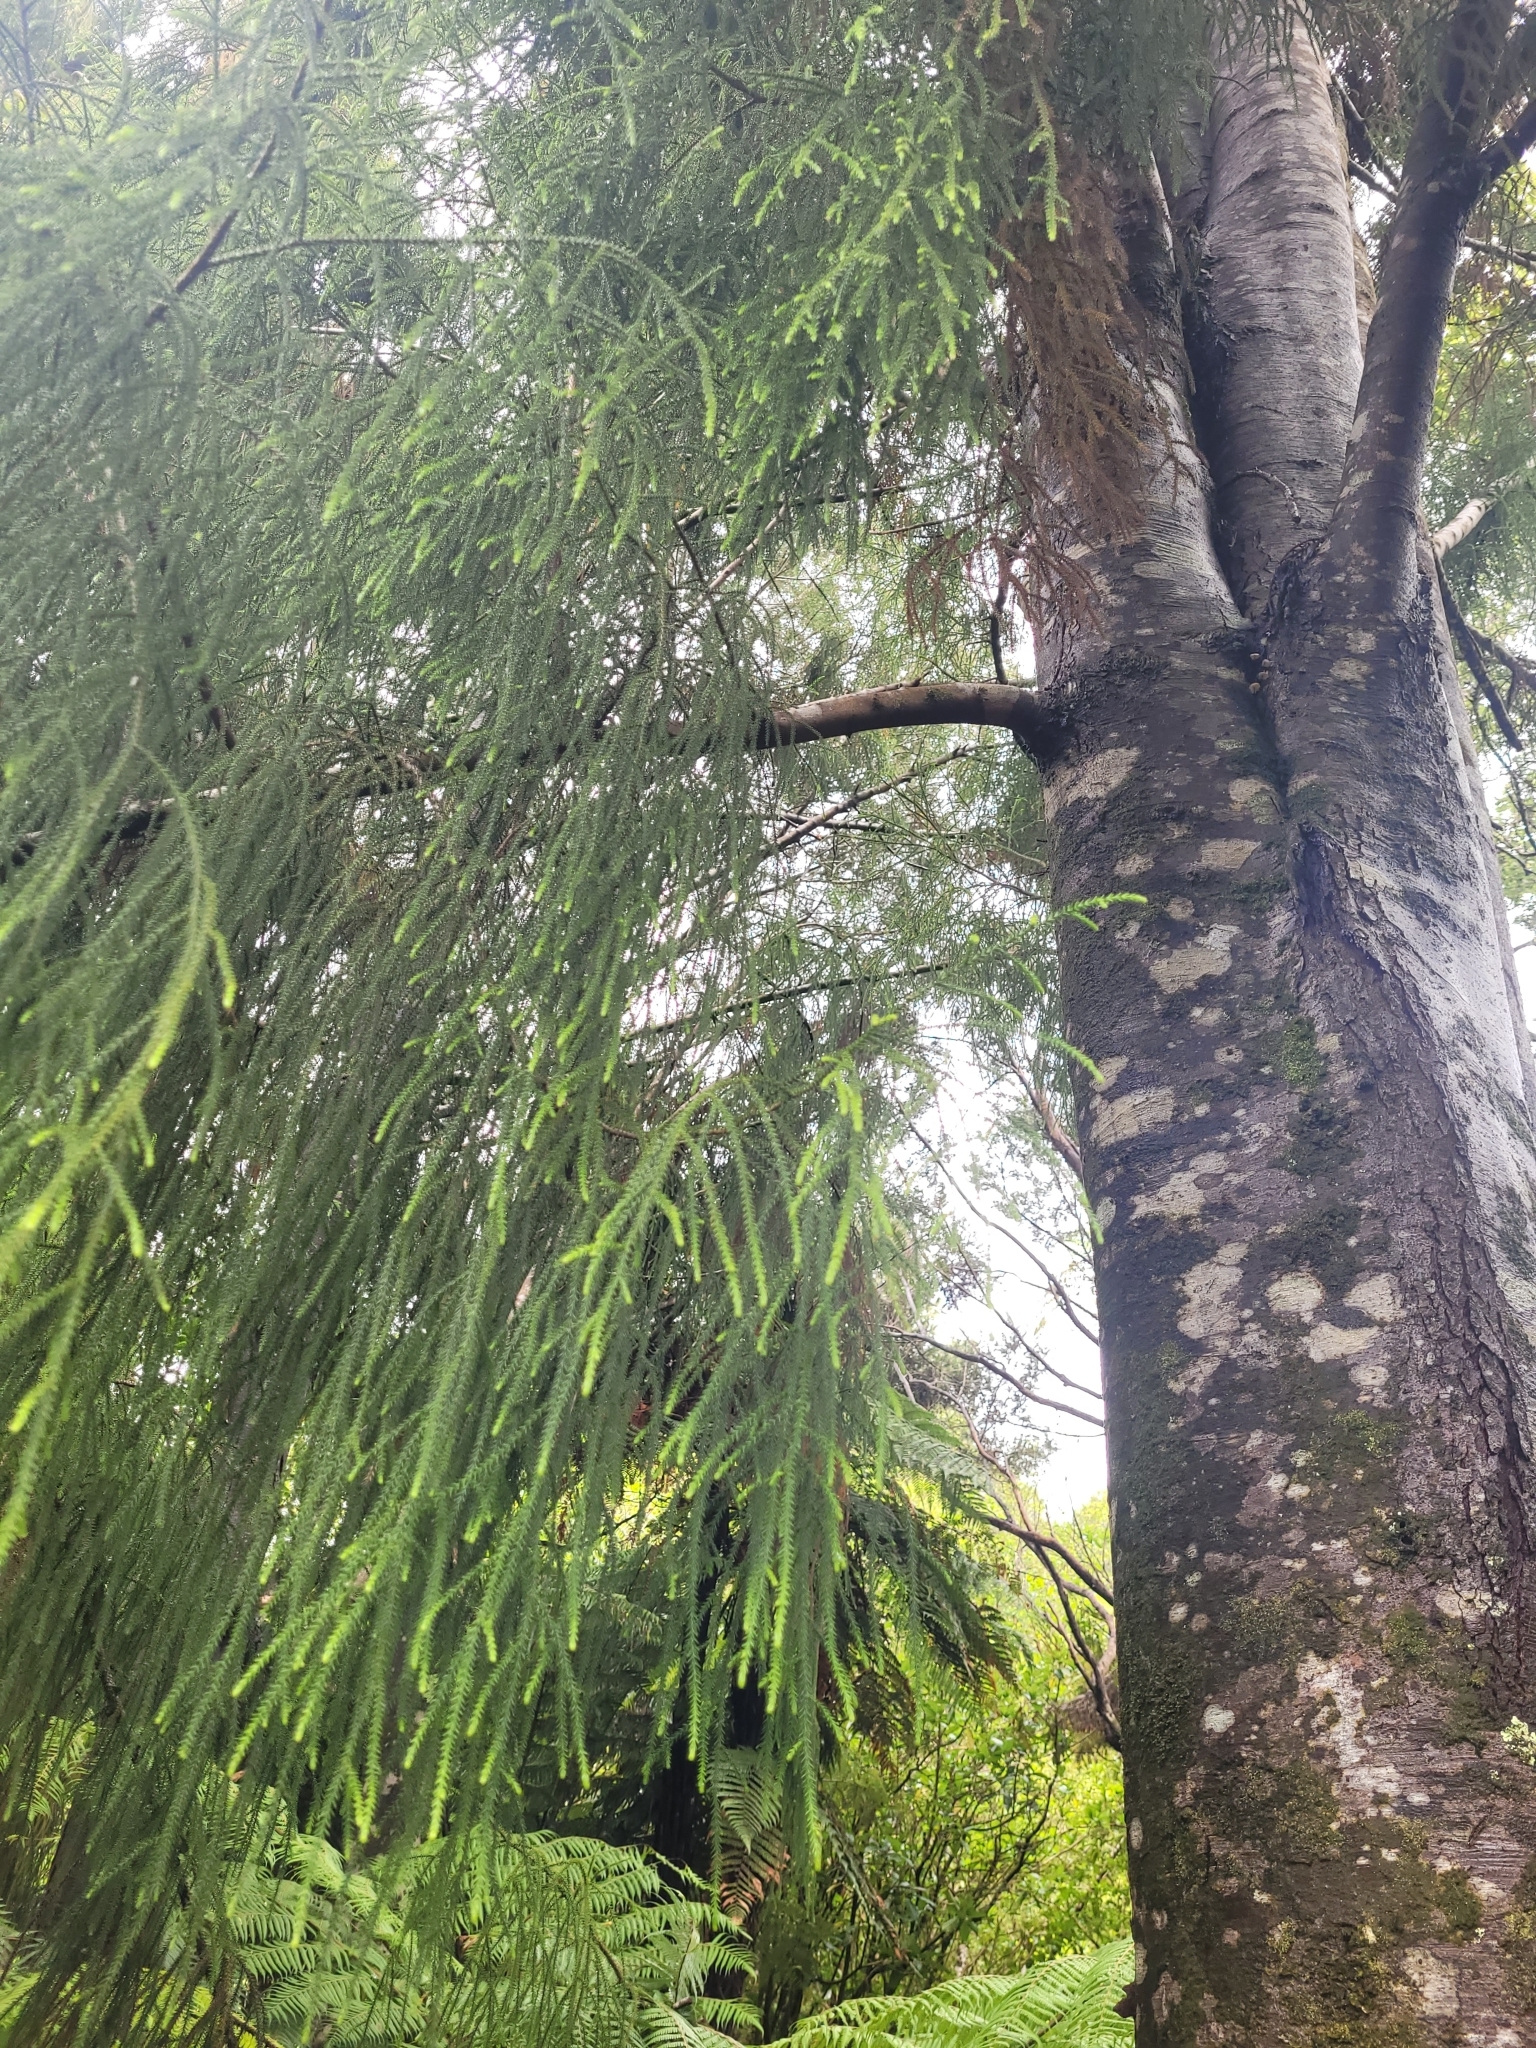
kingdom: Plantae
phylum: Tracheophyta
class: Pinopsida
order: Pinales
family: Podocarpaceae
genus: Dacrydium
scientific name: Dacrydium cupressinum
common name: Red pine
